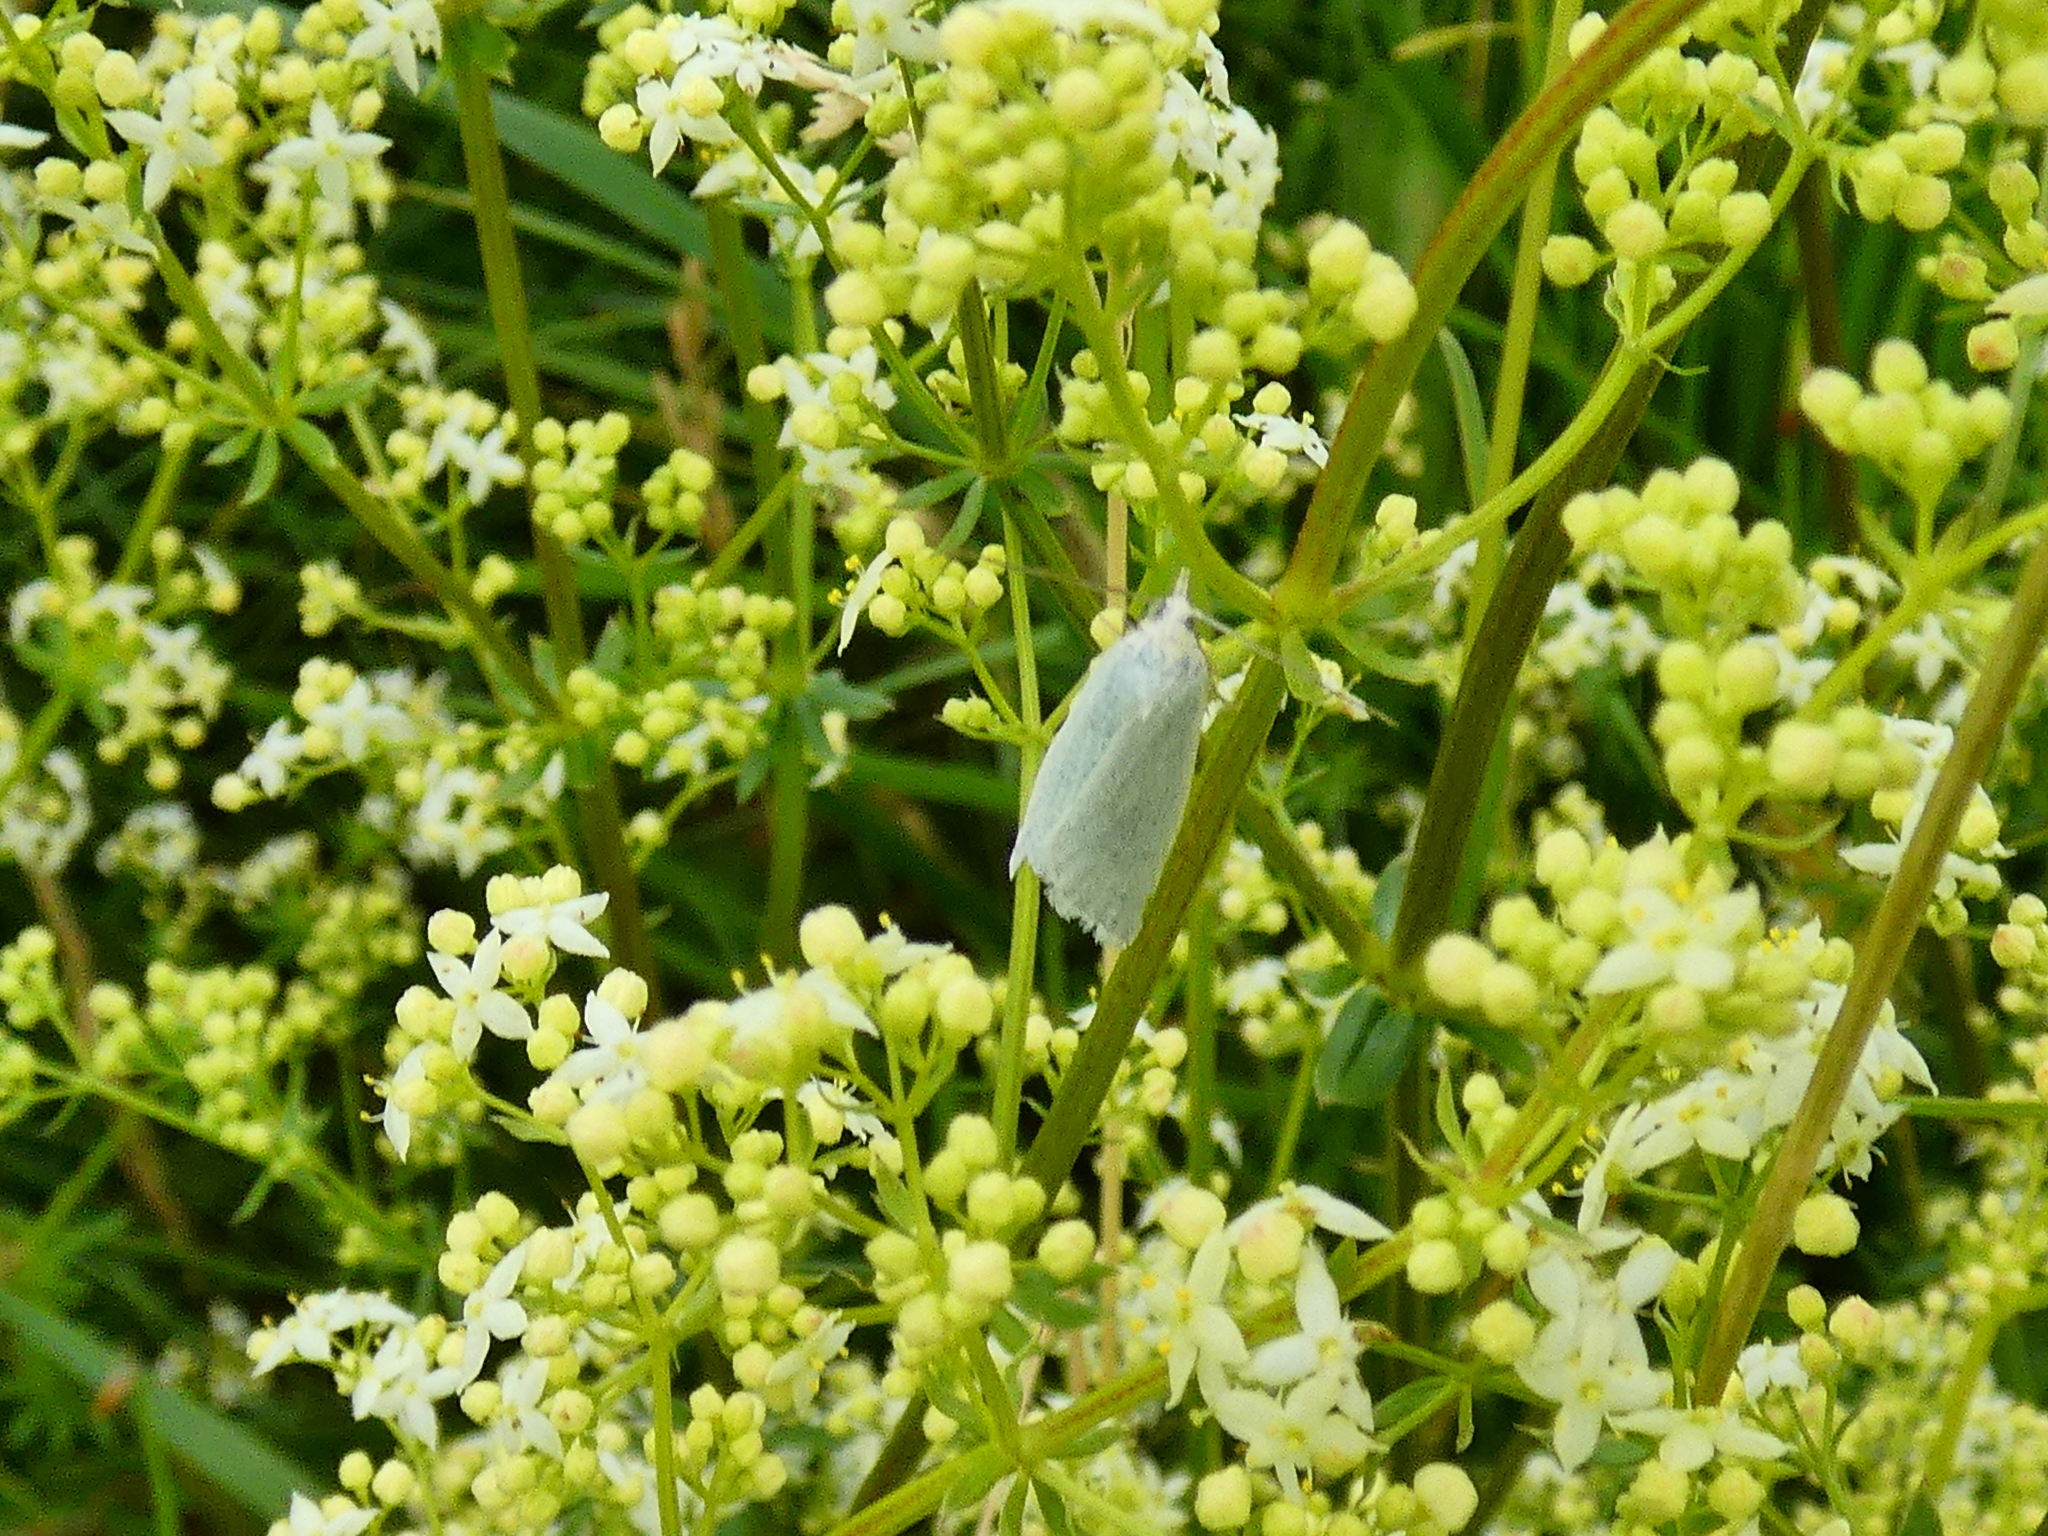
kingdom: Animalia
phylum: Arthropoda
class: Insecta
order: Lepidoptera
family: Tortricidae
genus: Eana
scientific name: Eana argentana
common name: Silver shade
